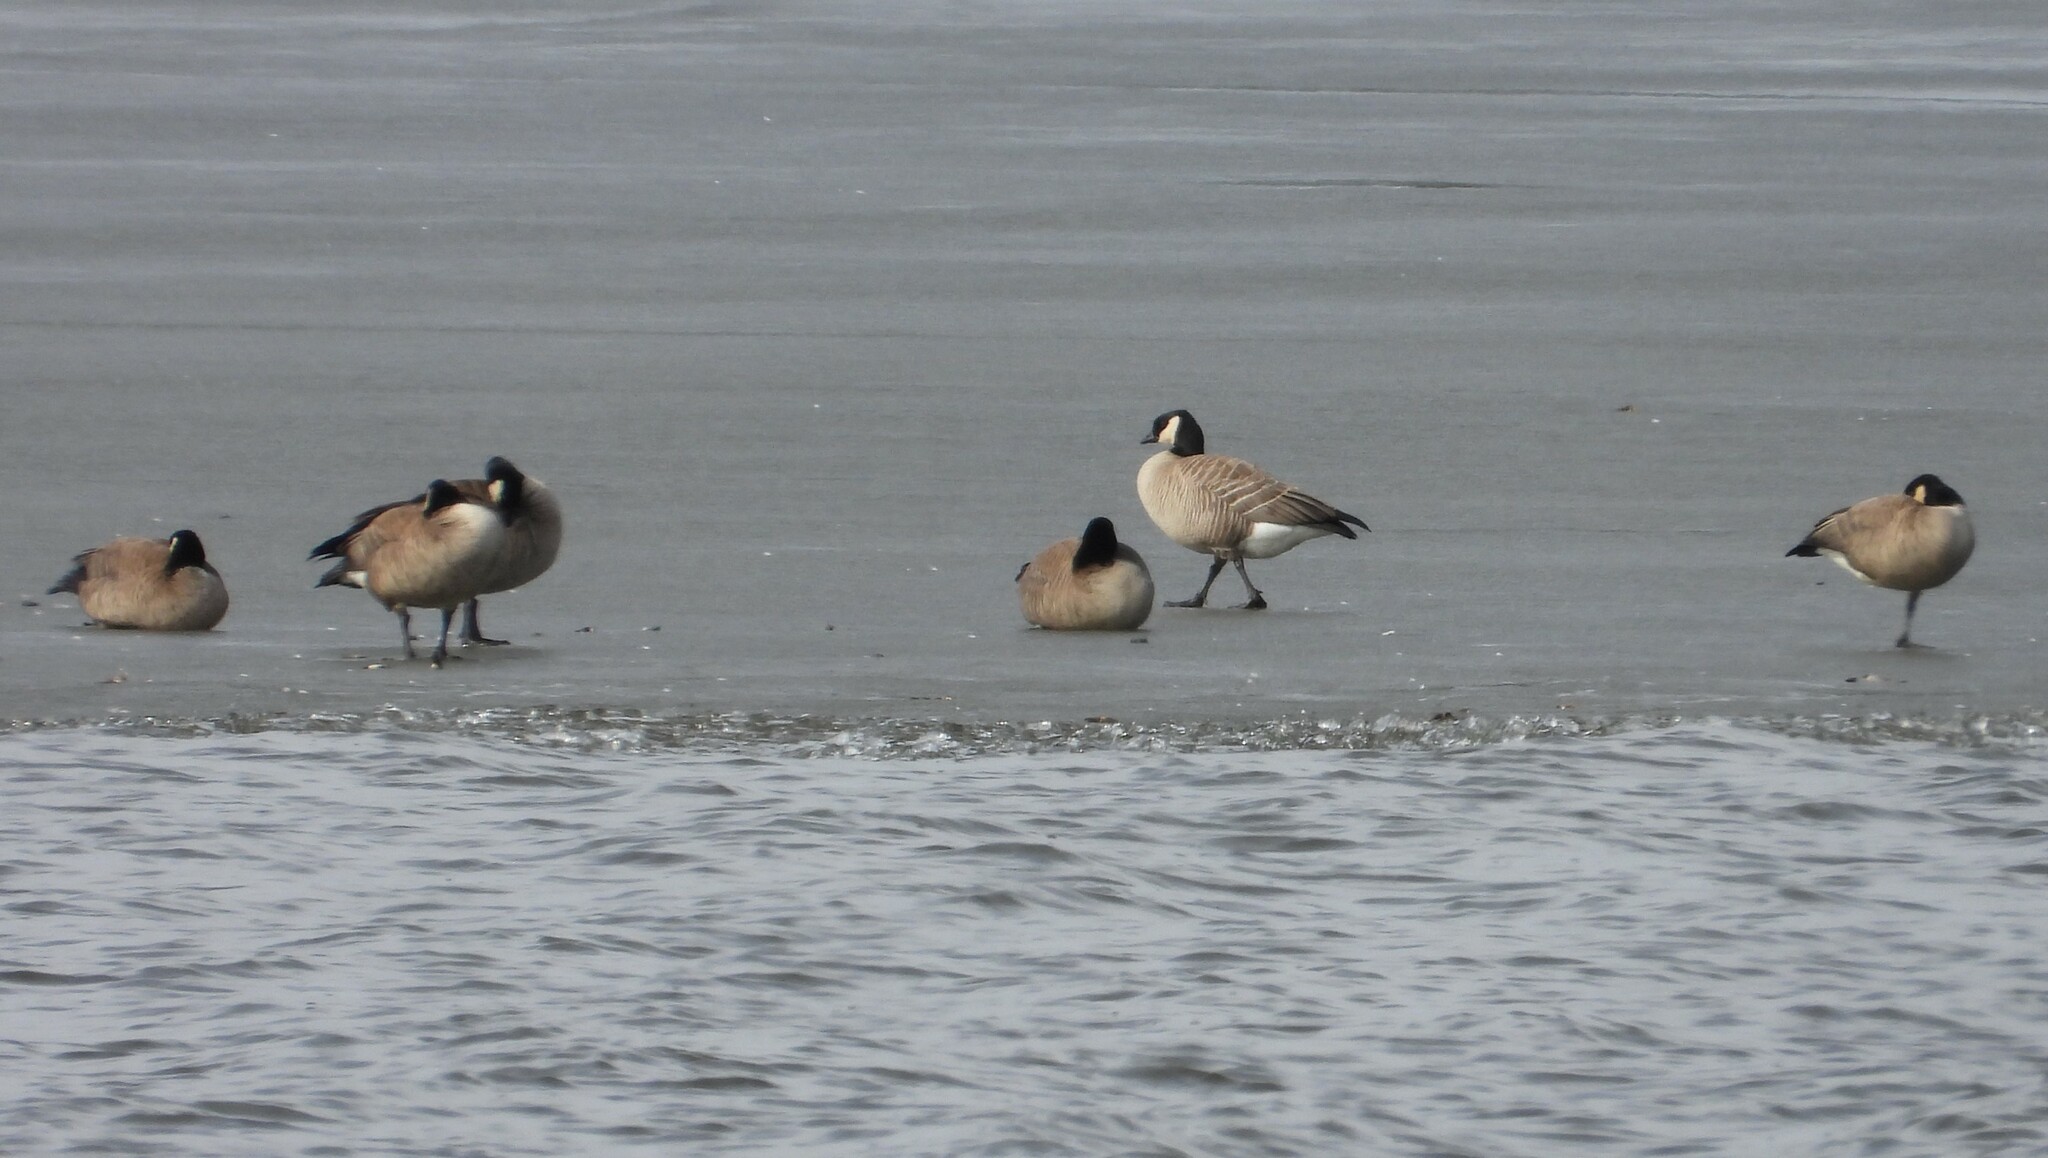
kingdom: Animalia
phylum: Chordata
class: Aves
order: Anseriformes
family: Anatidae
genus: Branta
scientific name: Branta hutchinsii
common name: Cackling goose
